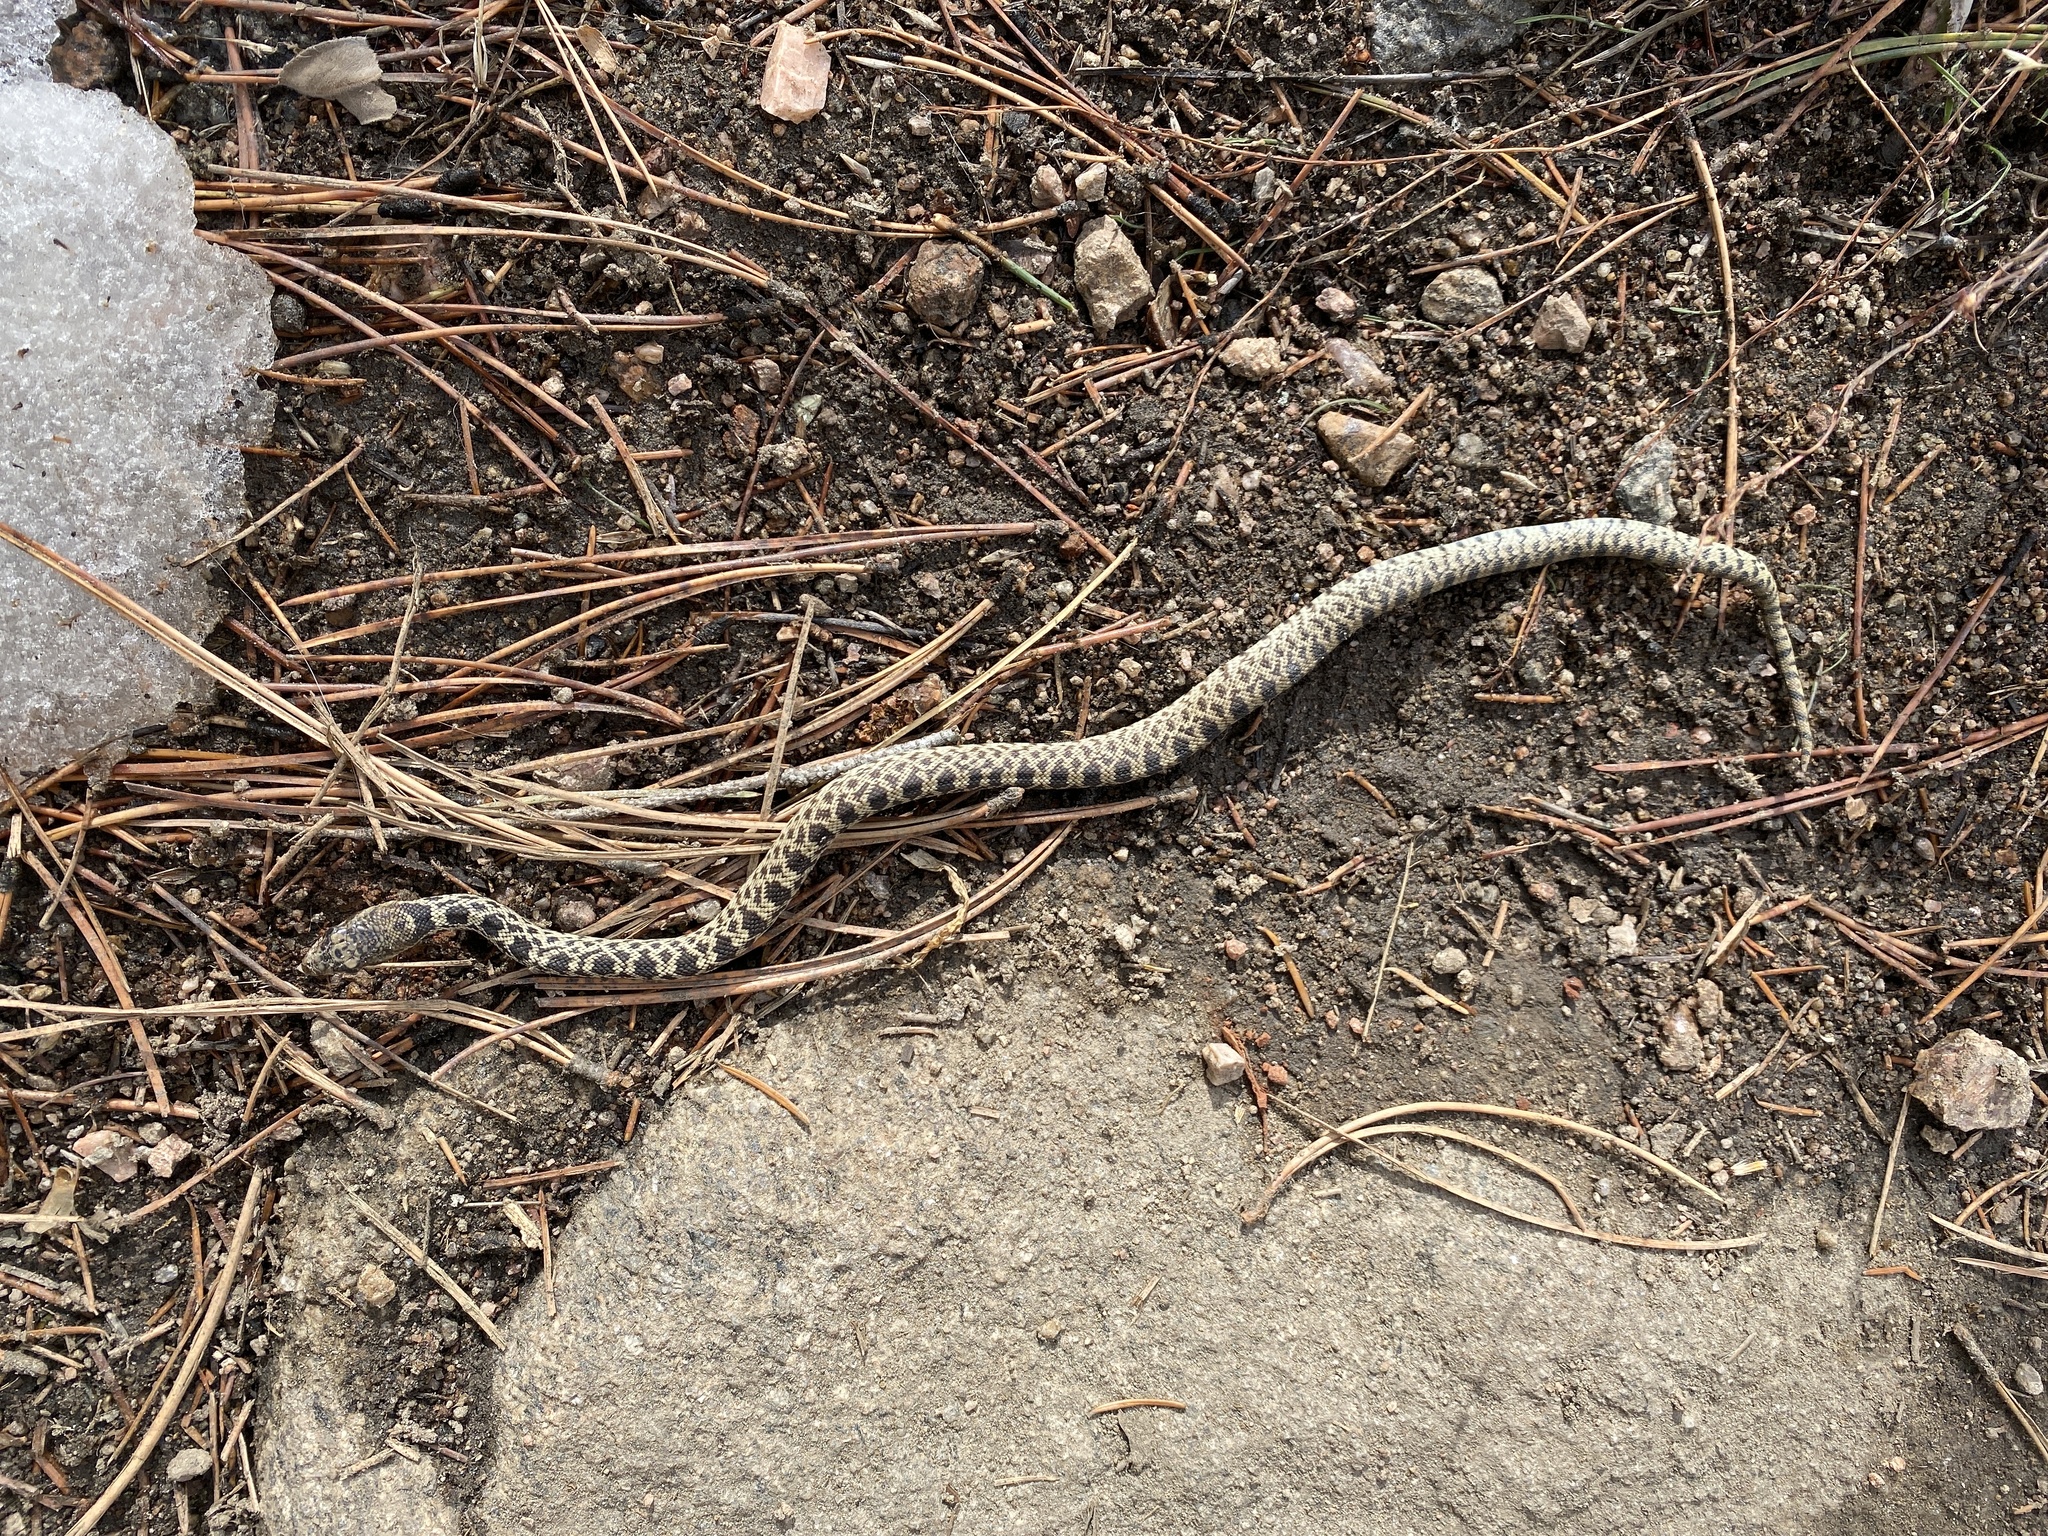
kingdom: Animalia
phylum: Chordata
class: Squamata
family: Colubridae
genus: Pituophis
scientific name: Pituophis catenifer
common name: Gopher snake
